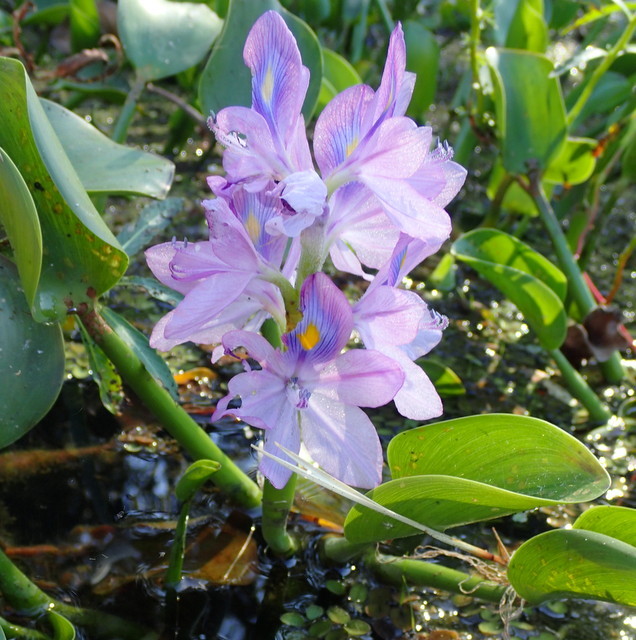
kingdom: Plantae
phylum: Tracheophyta
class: Liliopsida
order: Commelinales
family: Pontederiaceae
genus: Pontederia
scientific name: Pontederia crassipes
